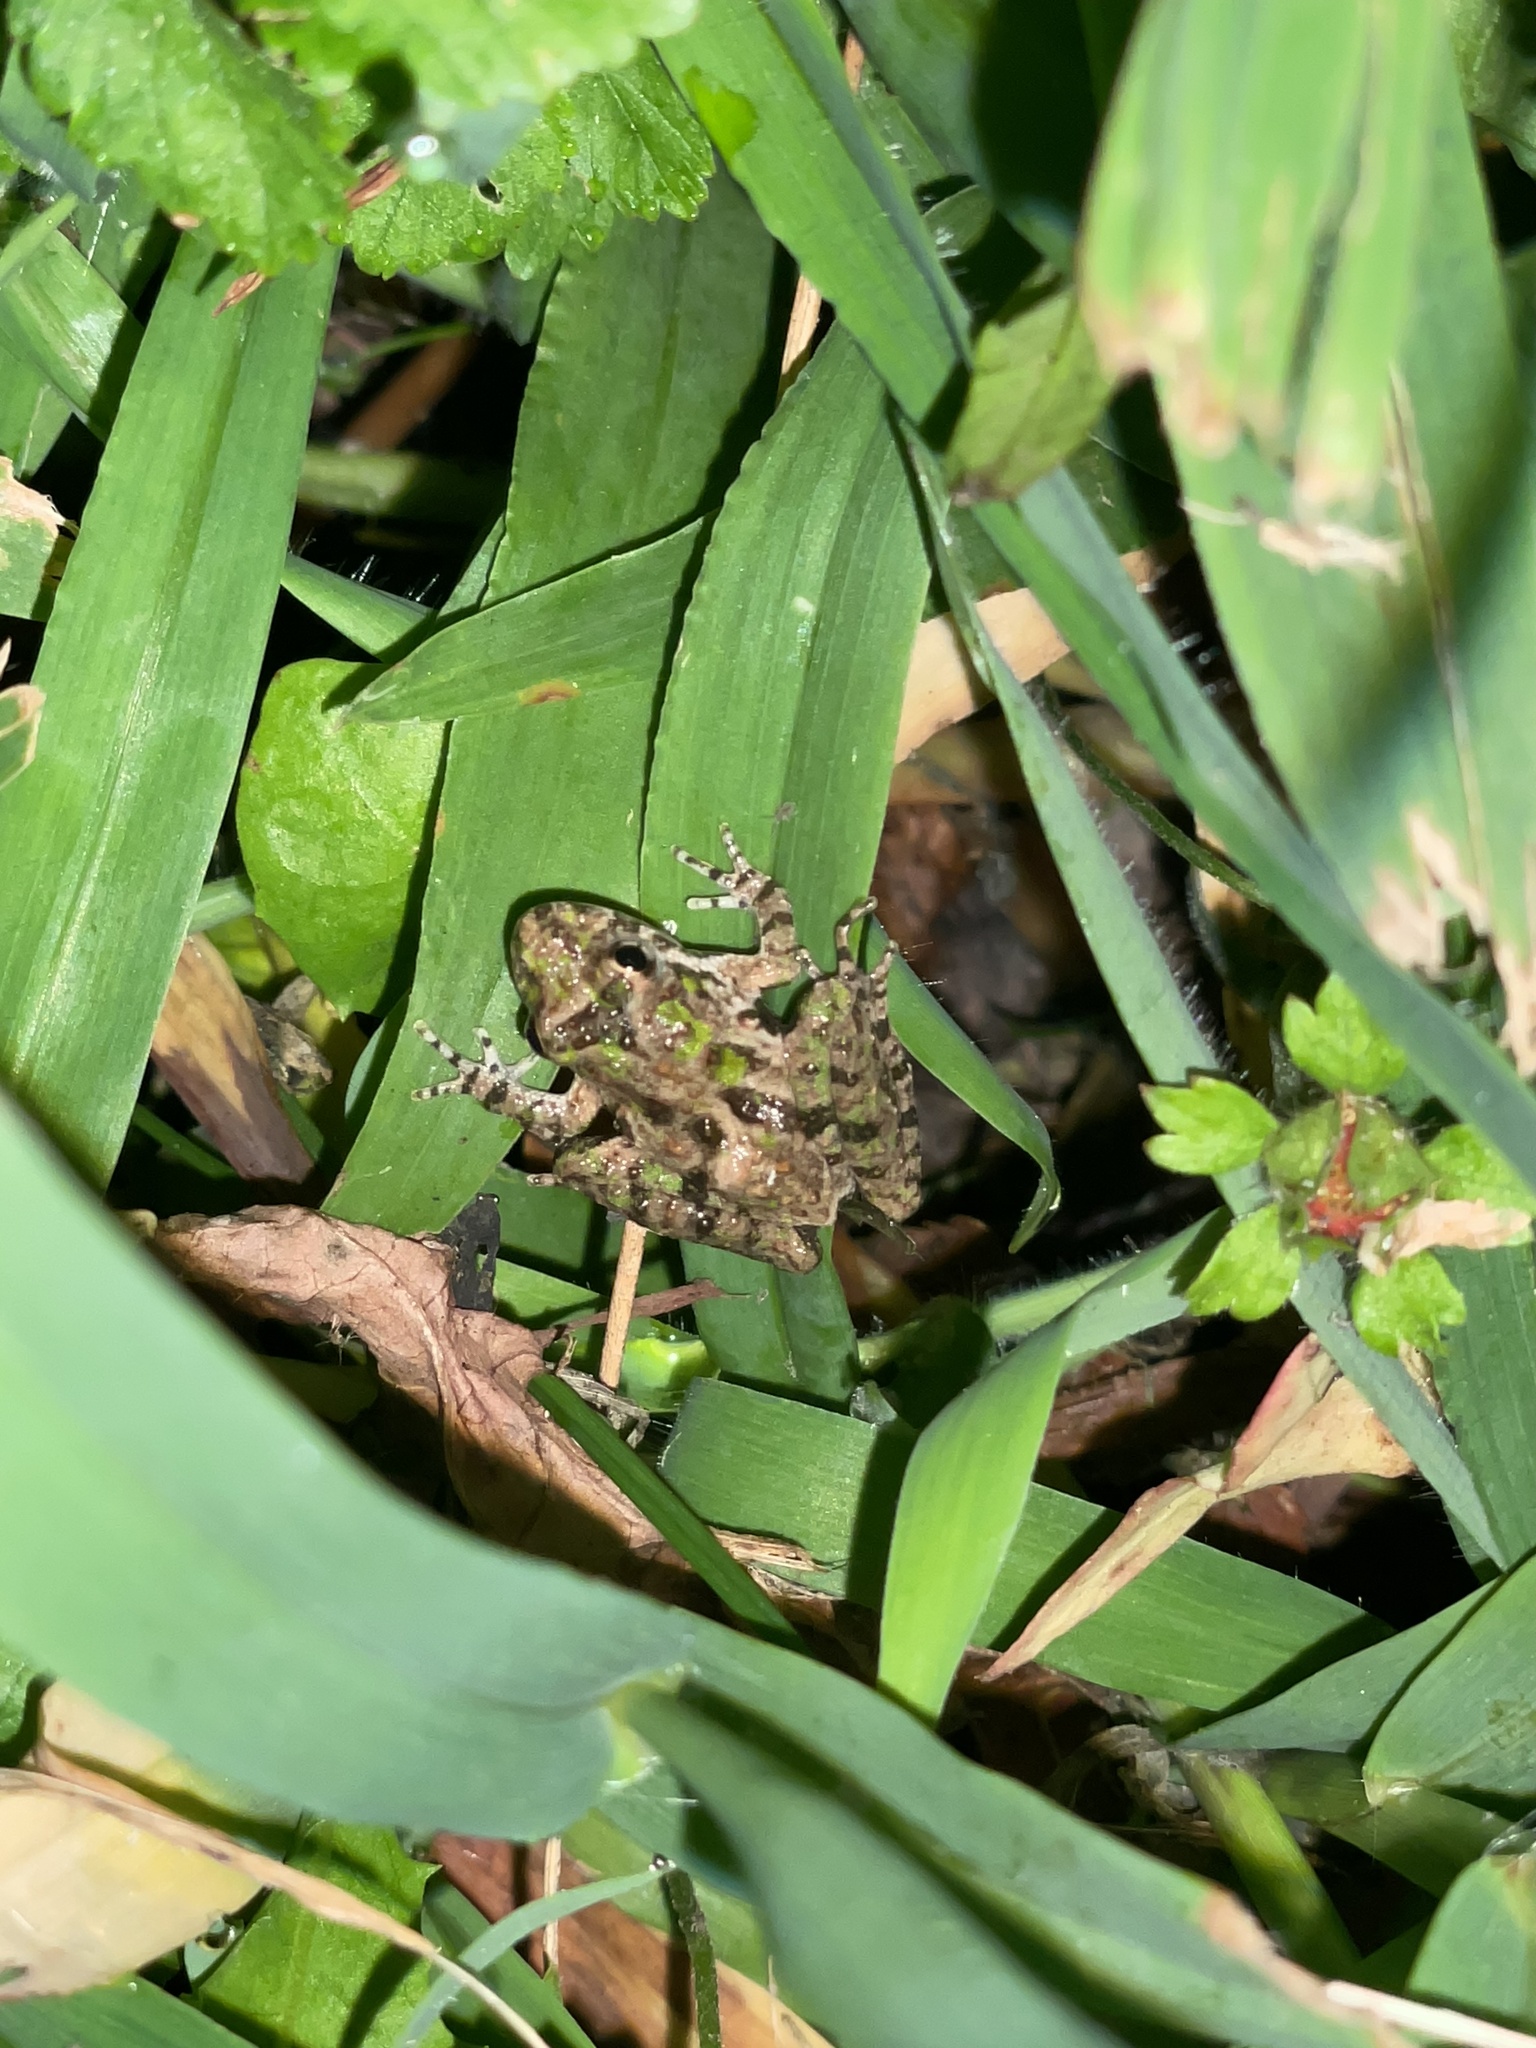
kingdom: Animalia
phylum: Chordata
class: Amphibia
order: Anura
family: Hylidae
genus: Acris
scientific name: Acris crepitans
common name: Northern cricket frog
